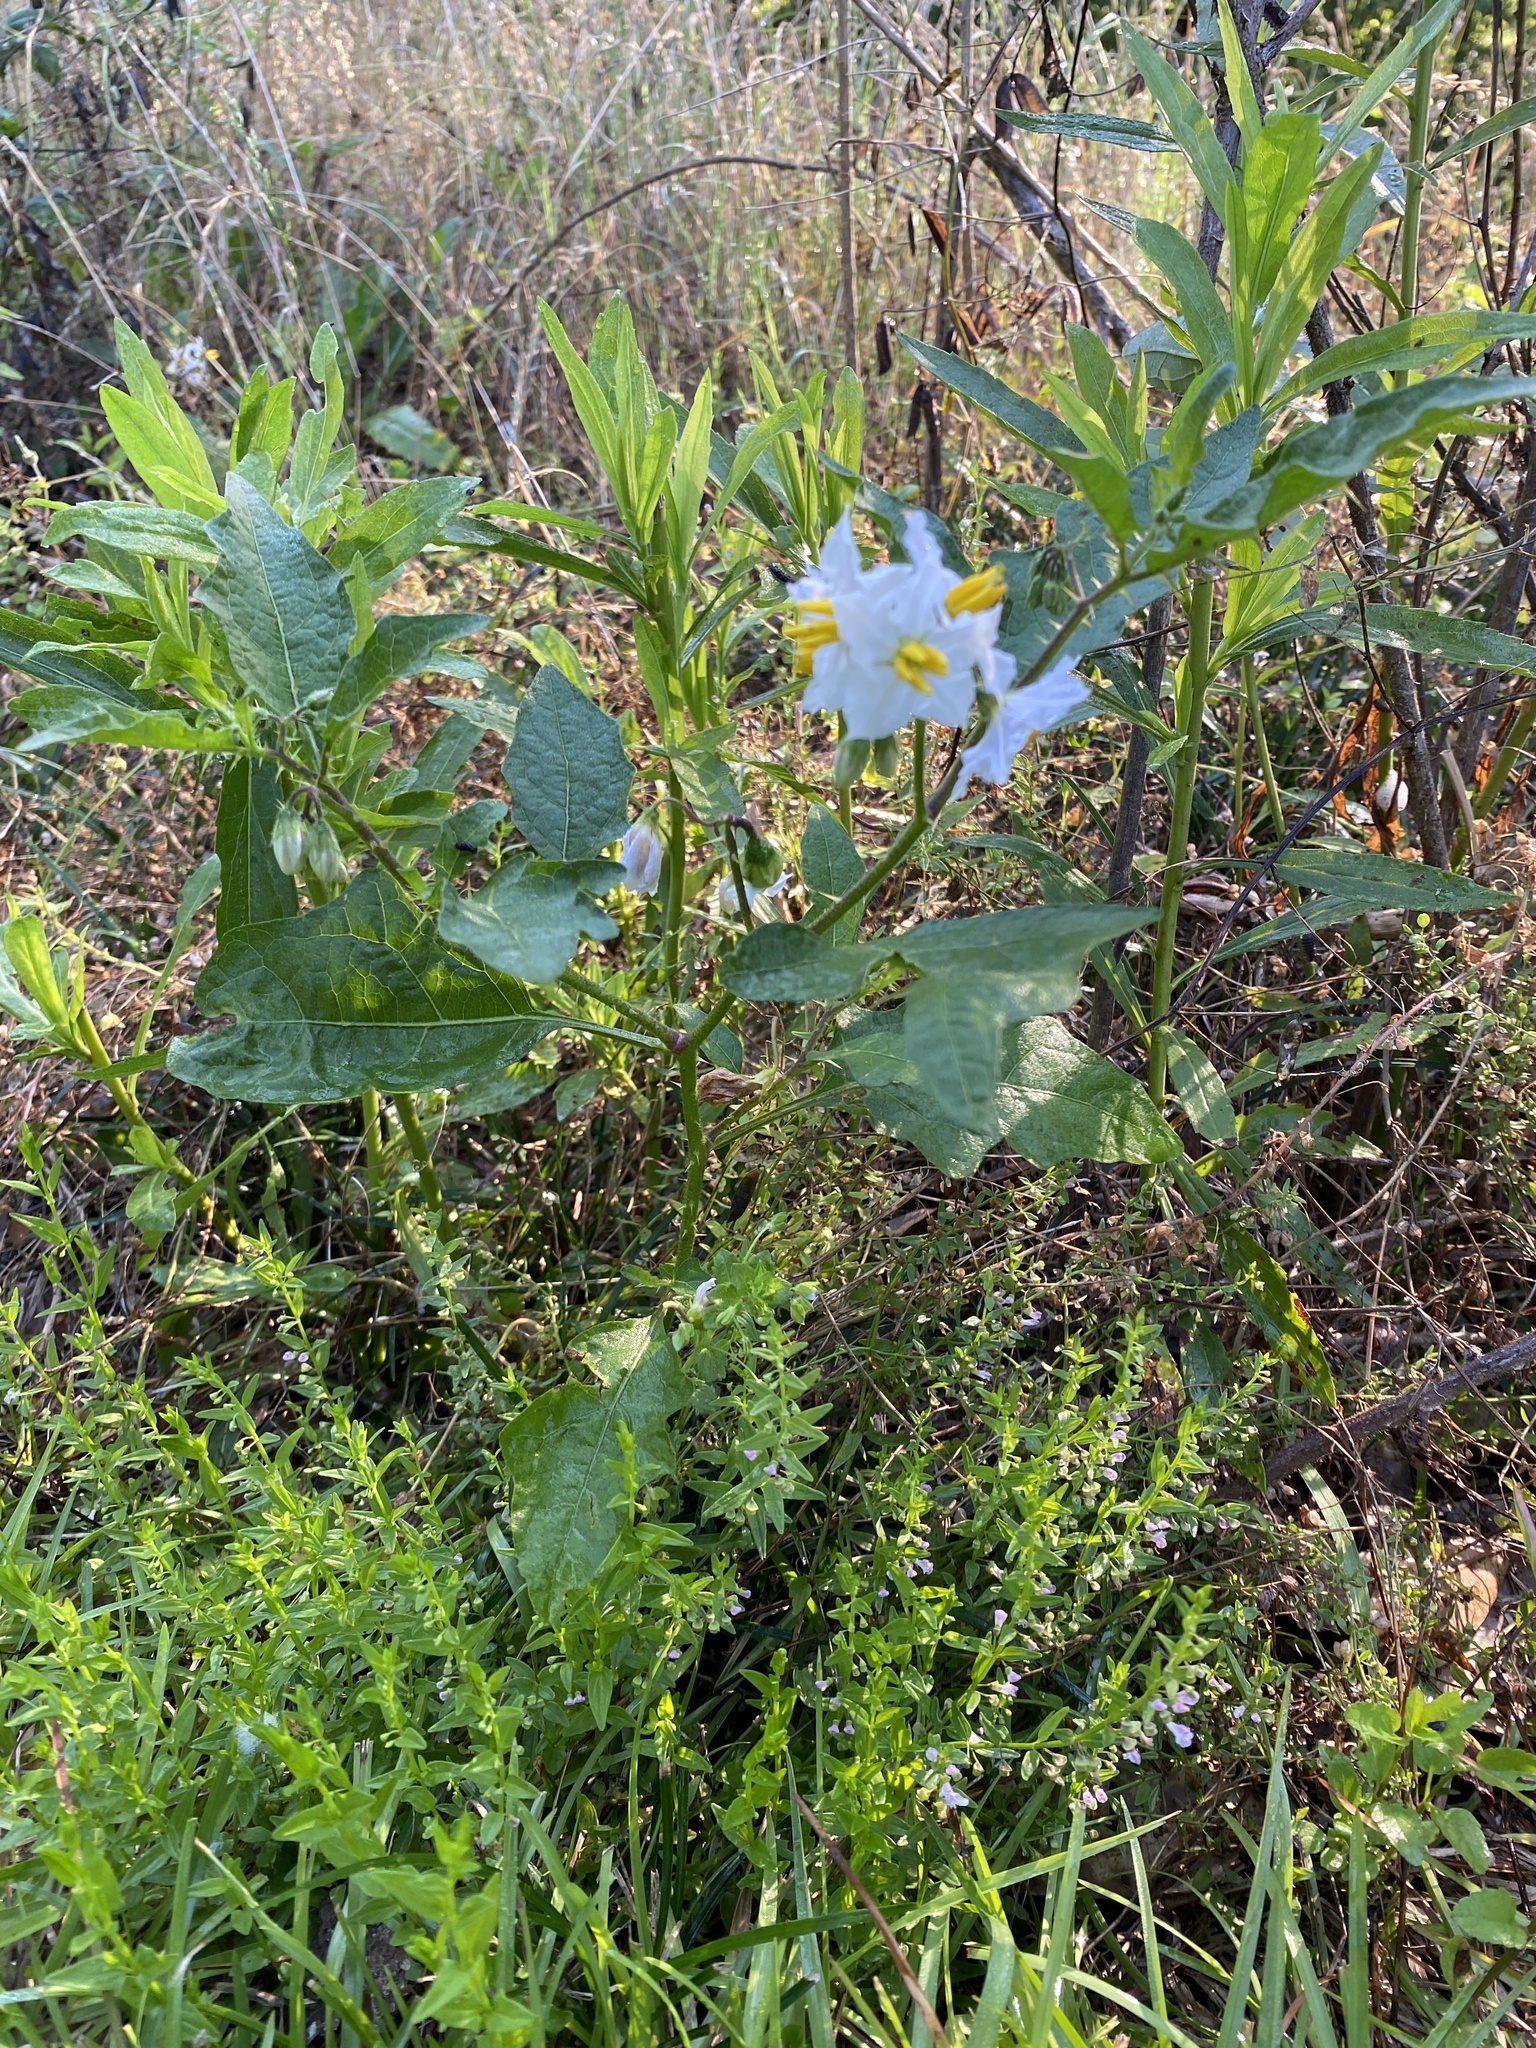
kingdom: Plantae
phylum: Tracheophyta
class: Magnoliopsida
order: Solanales
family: Solanaceae
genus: Solanum
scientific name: Solanum carolinense
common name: Horse-nettle
